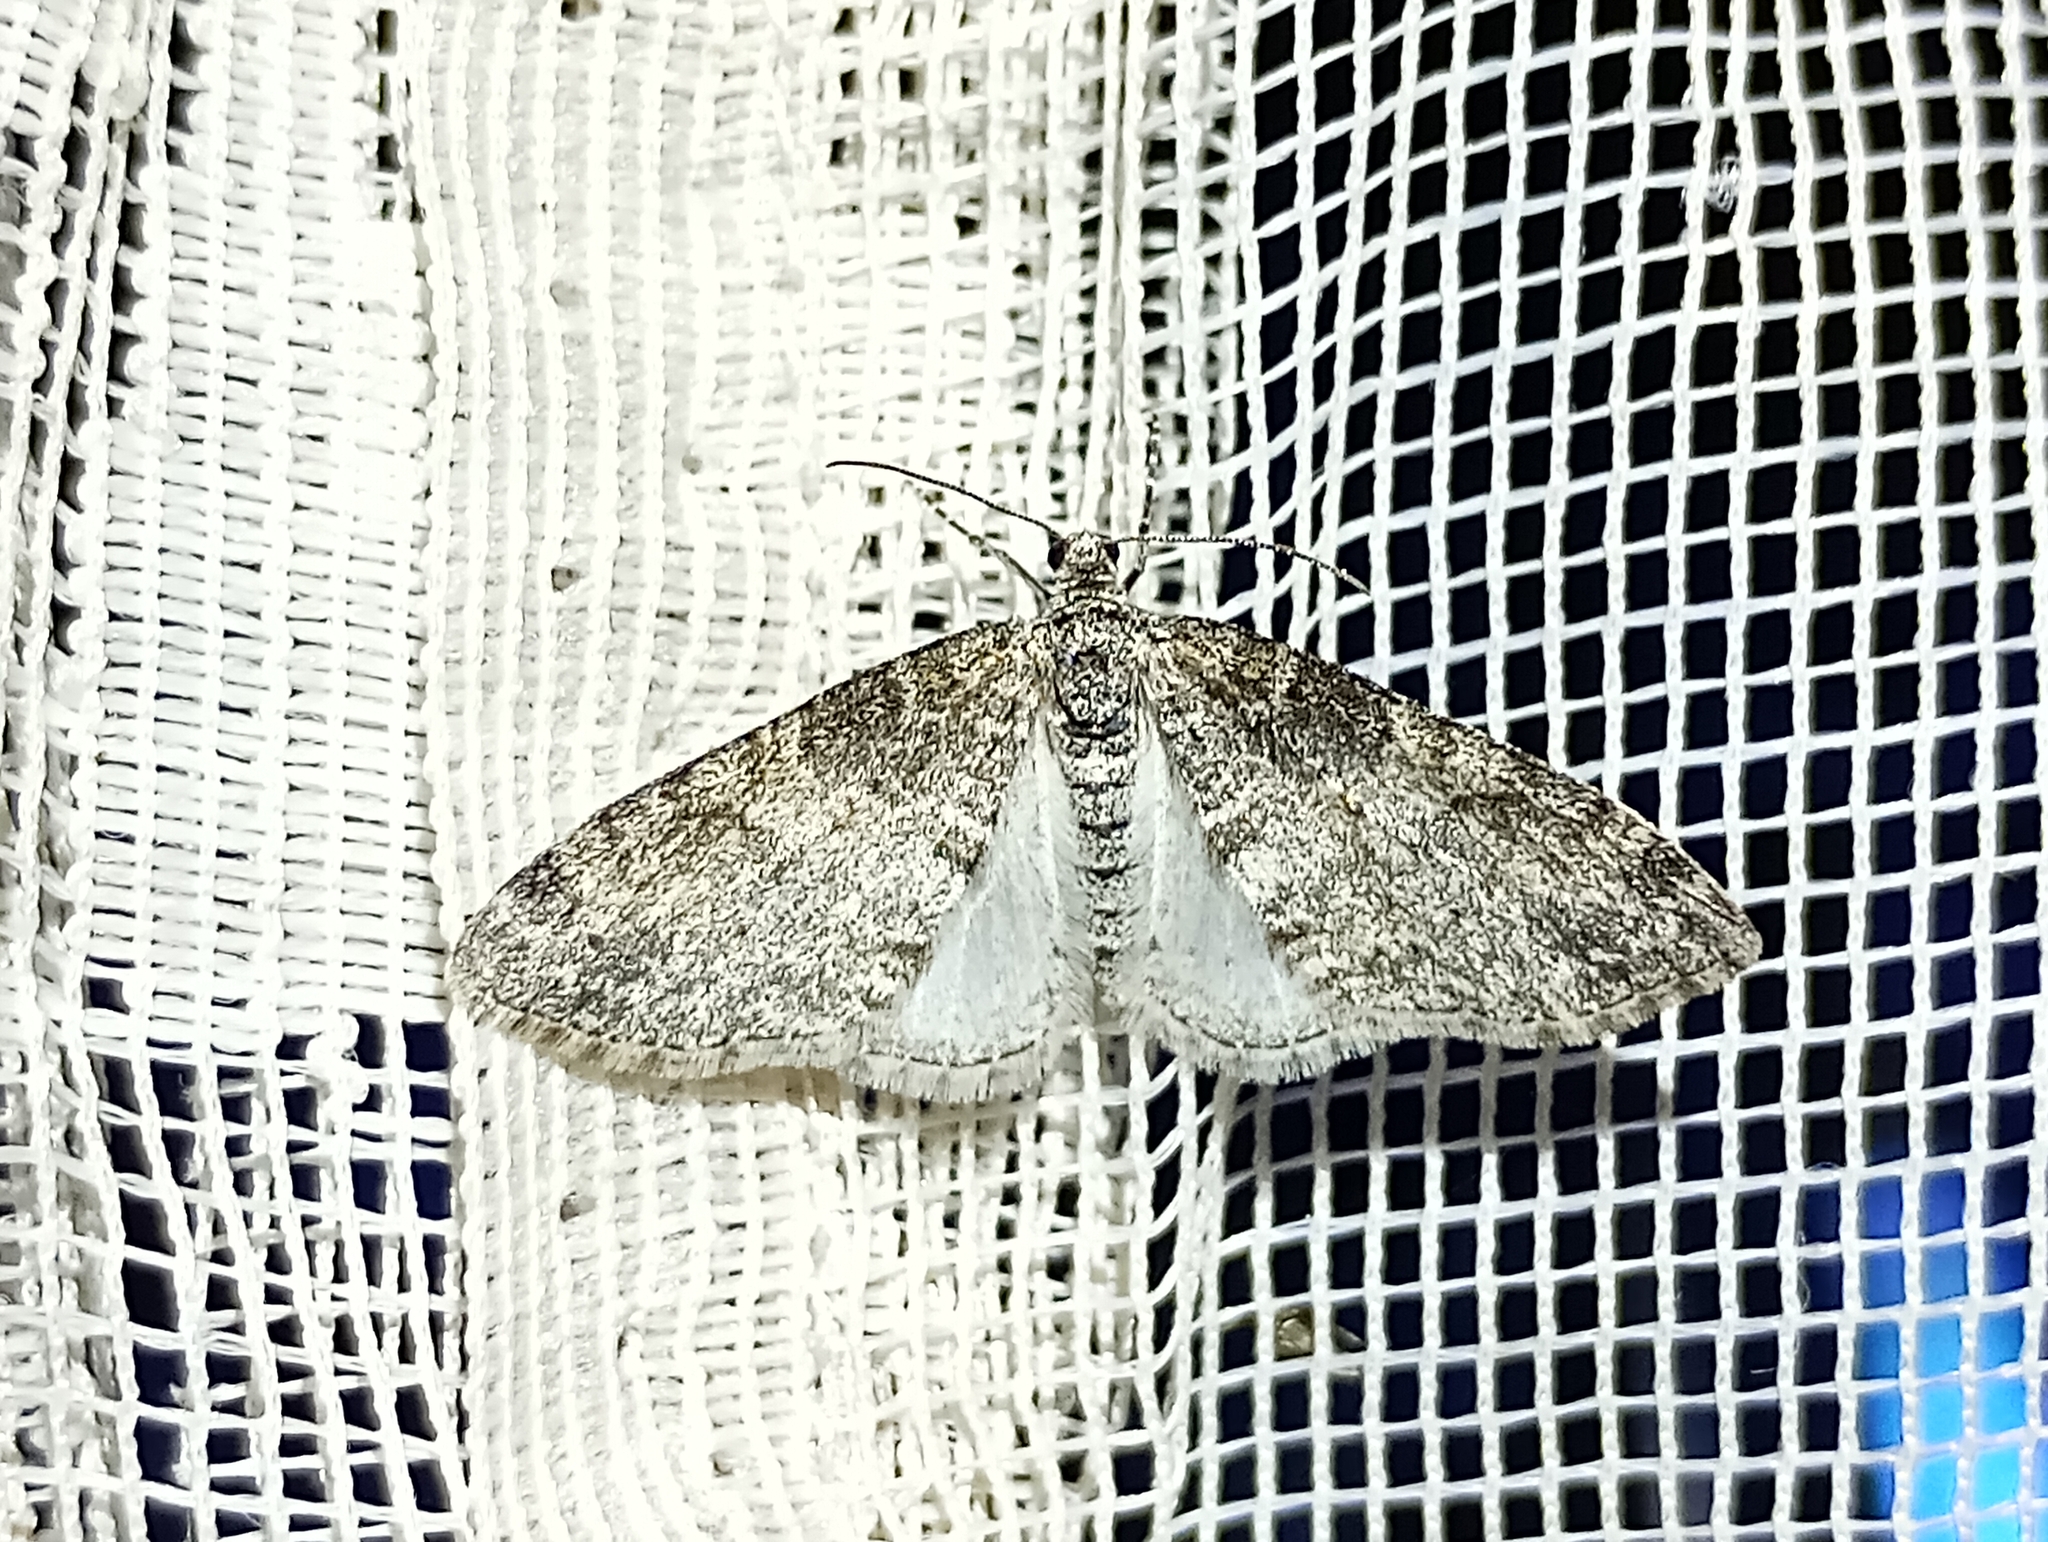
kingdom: Animalia
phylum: Arthropoda
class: Insecta
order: Lepidoptera
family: Geometridae
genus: Lobophora
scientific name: Lobophora halterata
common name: Seraphim
